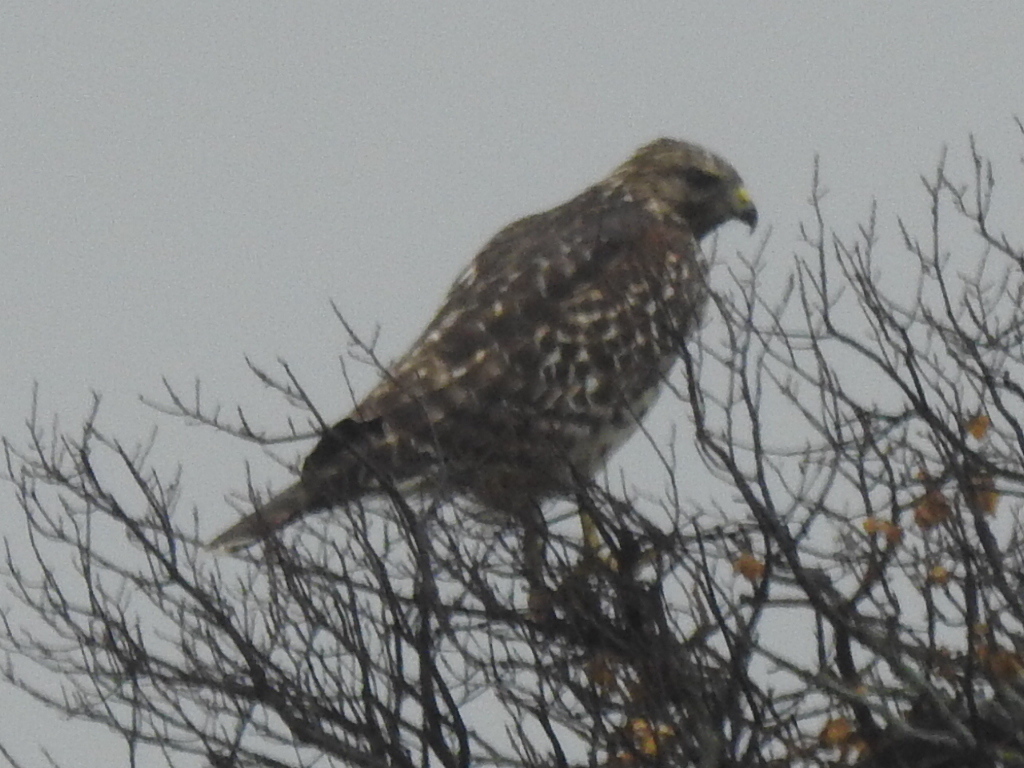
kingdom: Animalia
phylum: Chordata
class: Aves
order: Accipitriformes
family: Accipitridae
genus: Buteo
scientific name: Buteo lineatus
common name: Red-shouldered hawk
